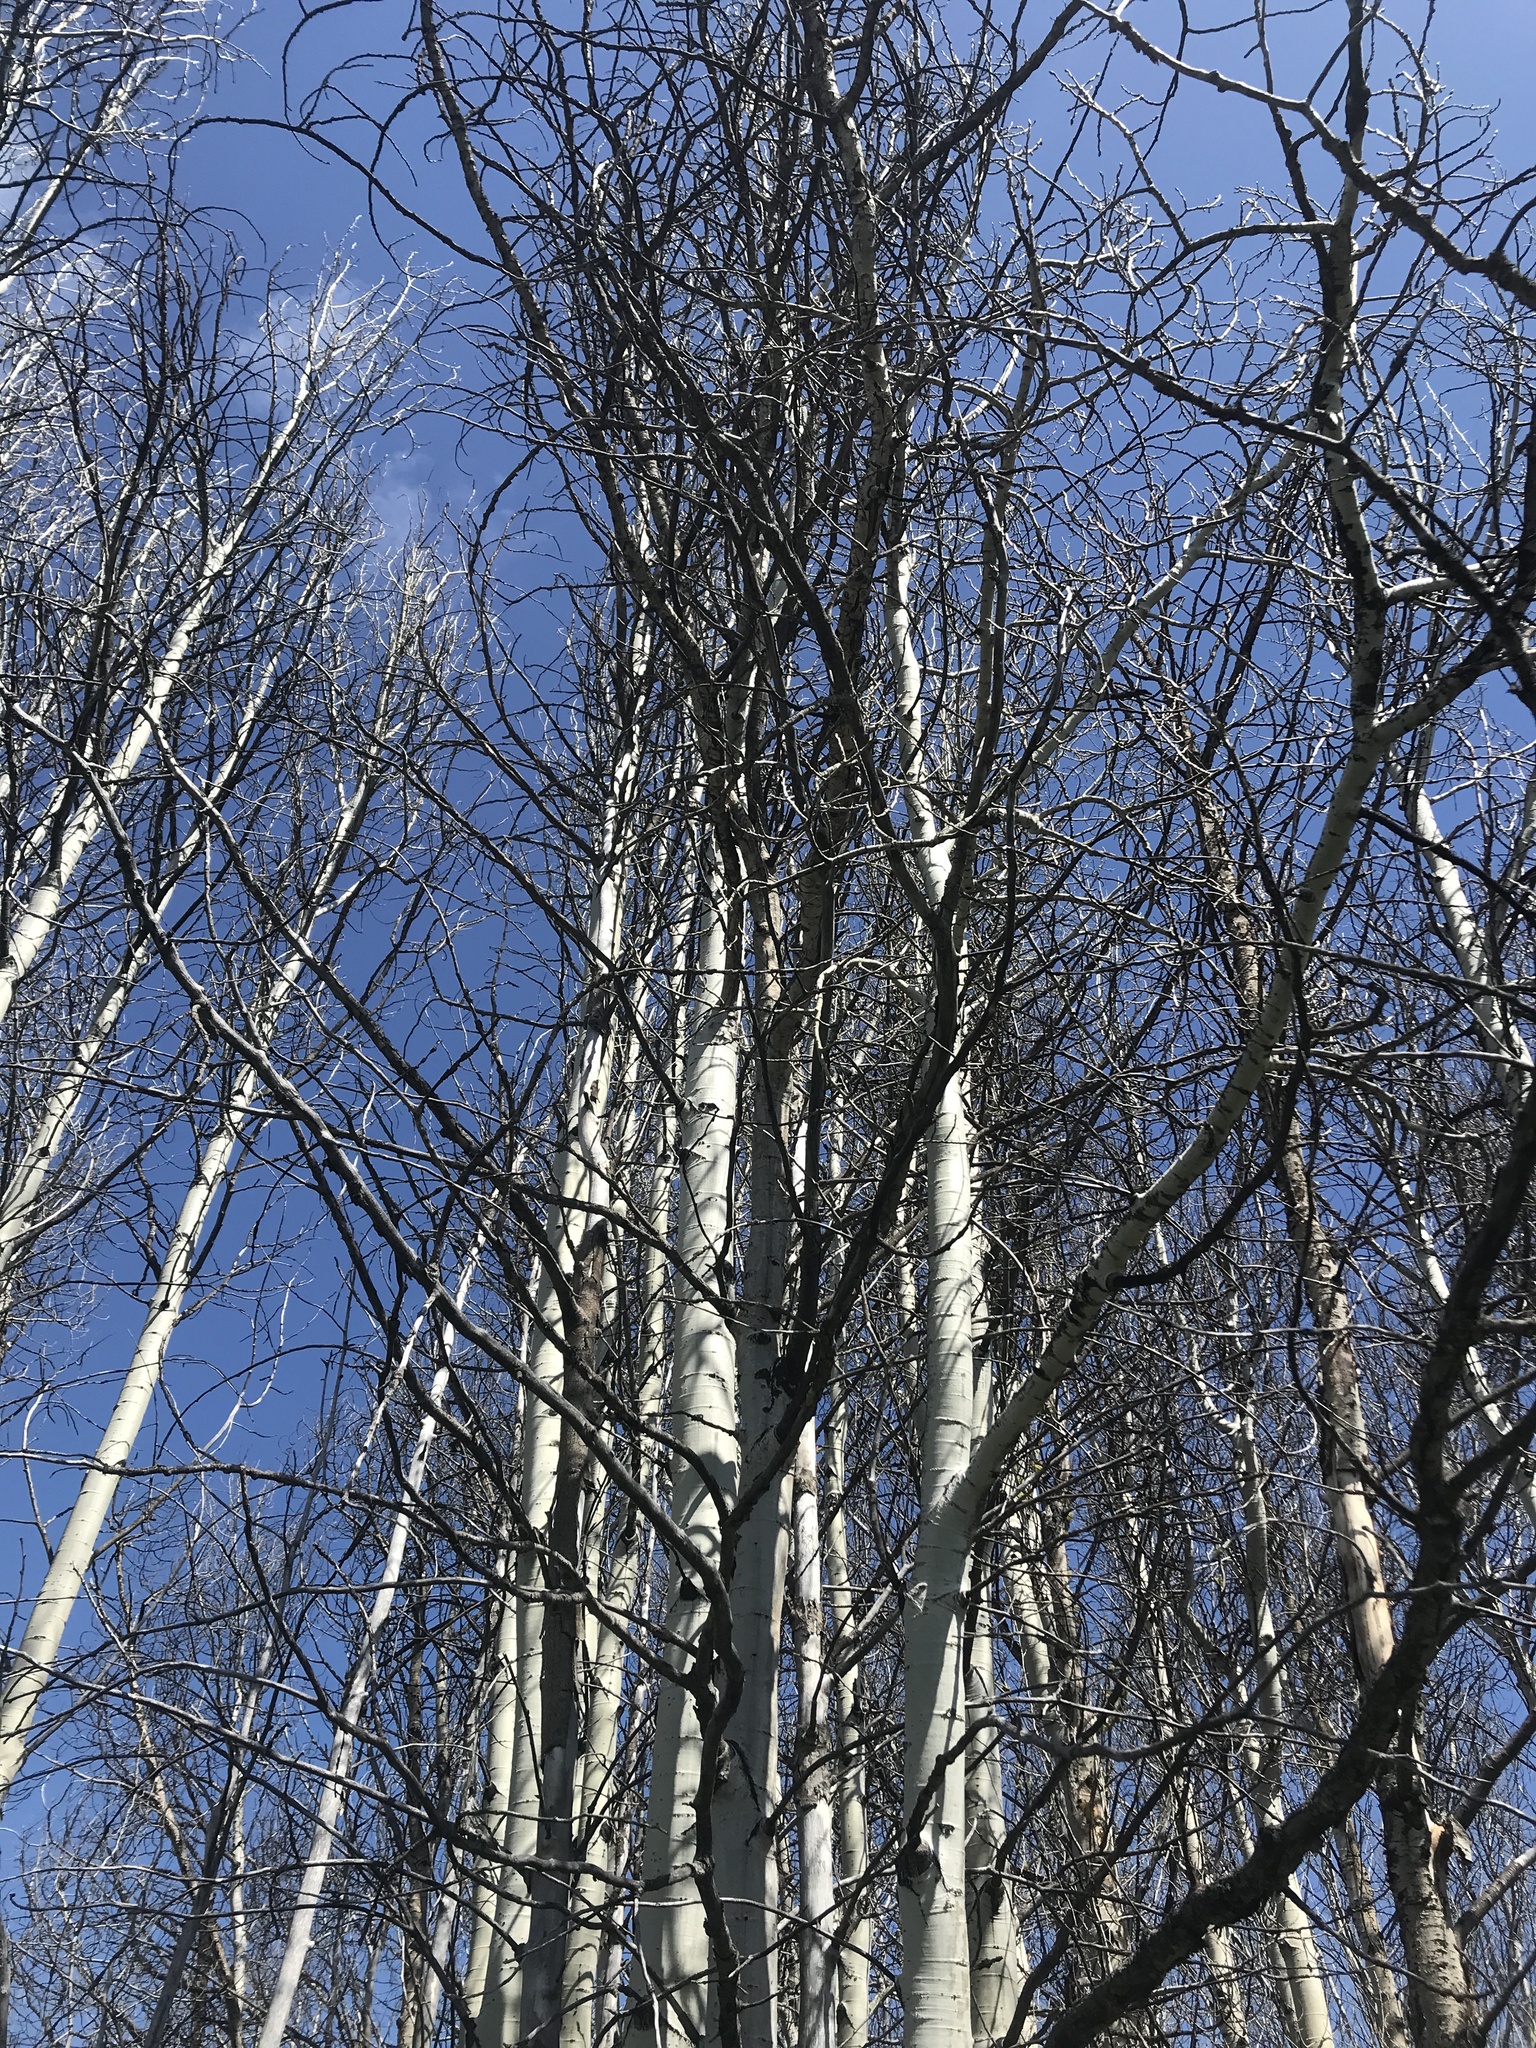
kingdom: Plantae
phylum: Tracheophyta
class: Magnoliopsida
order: Malpighiales
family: Salicaceae
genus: Populus
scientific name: Populus tremuloides
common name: Quaking aspen
